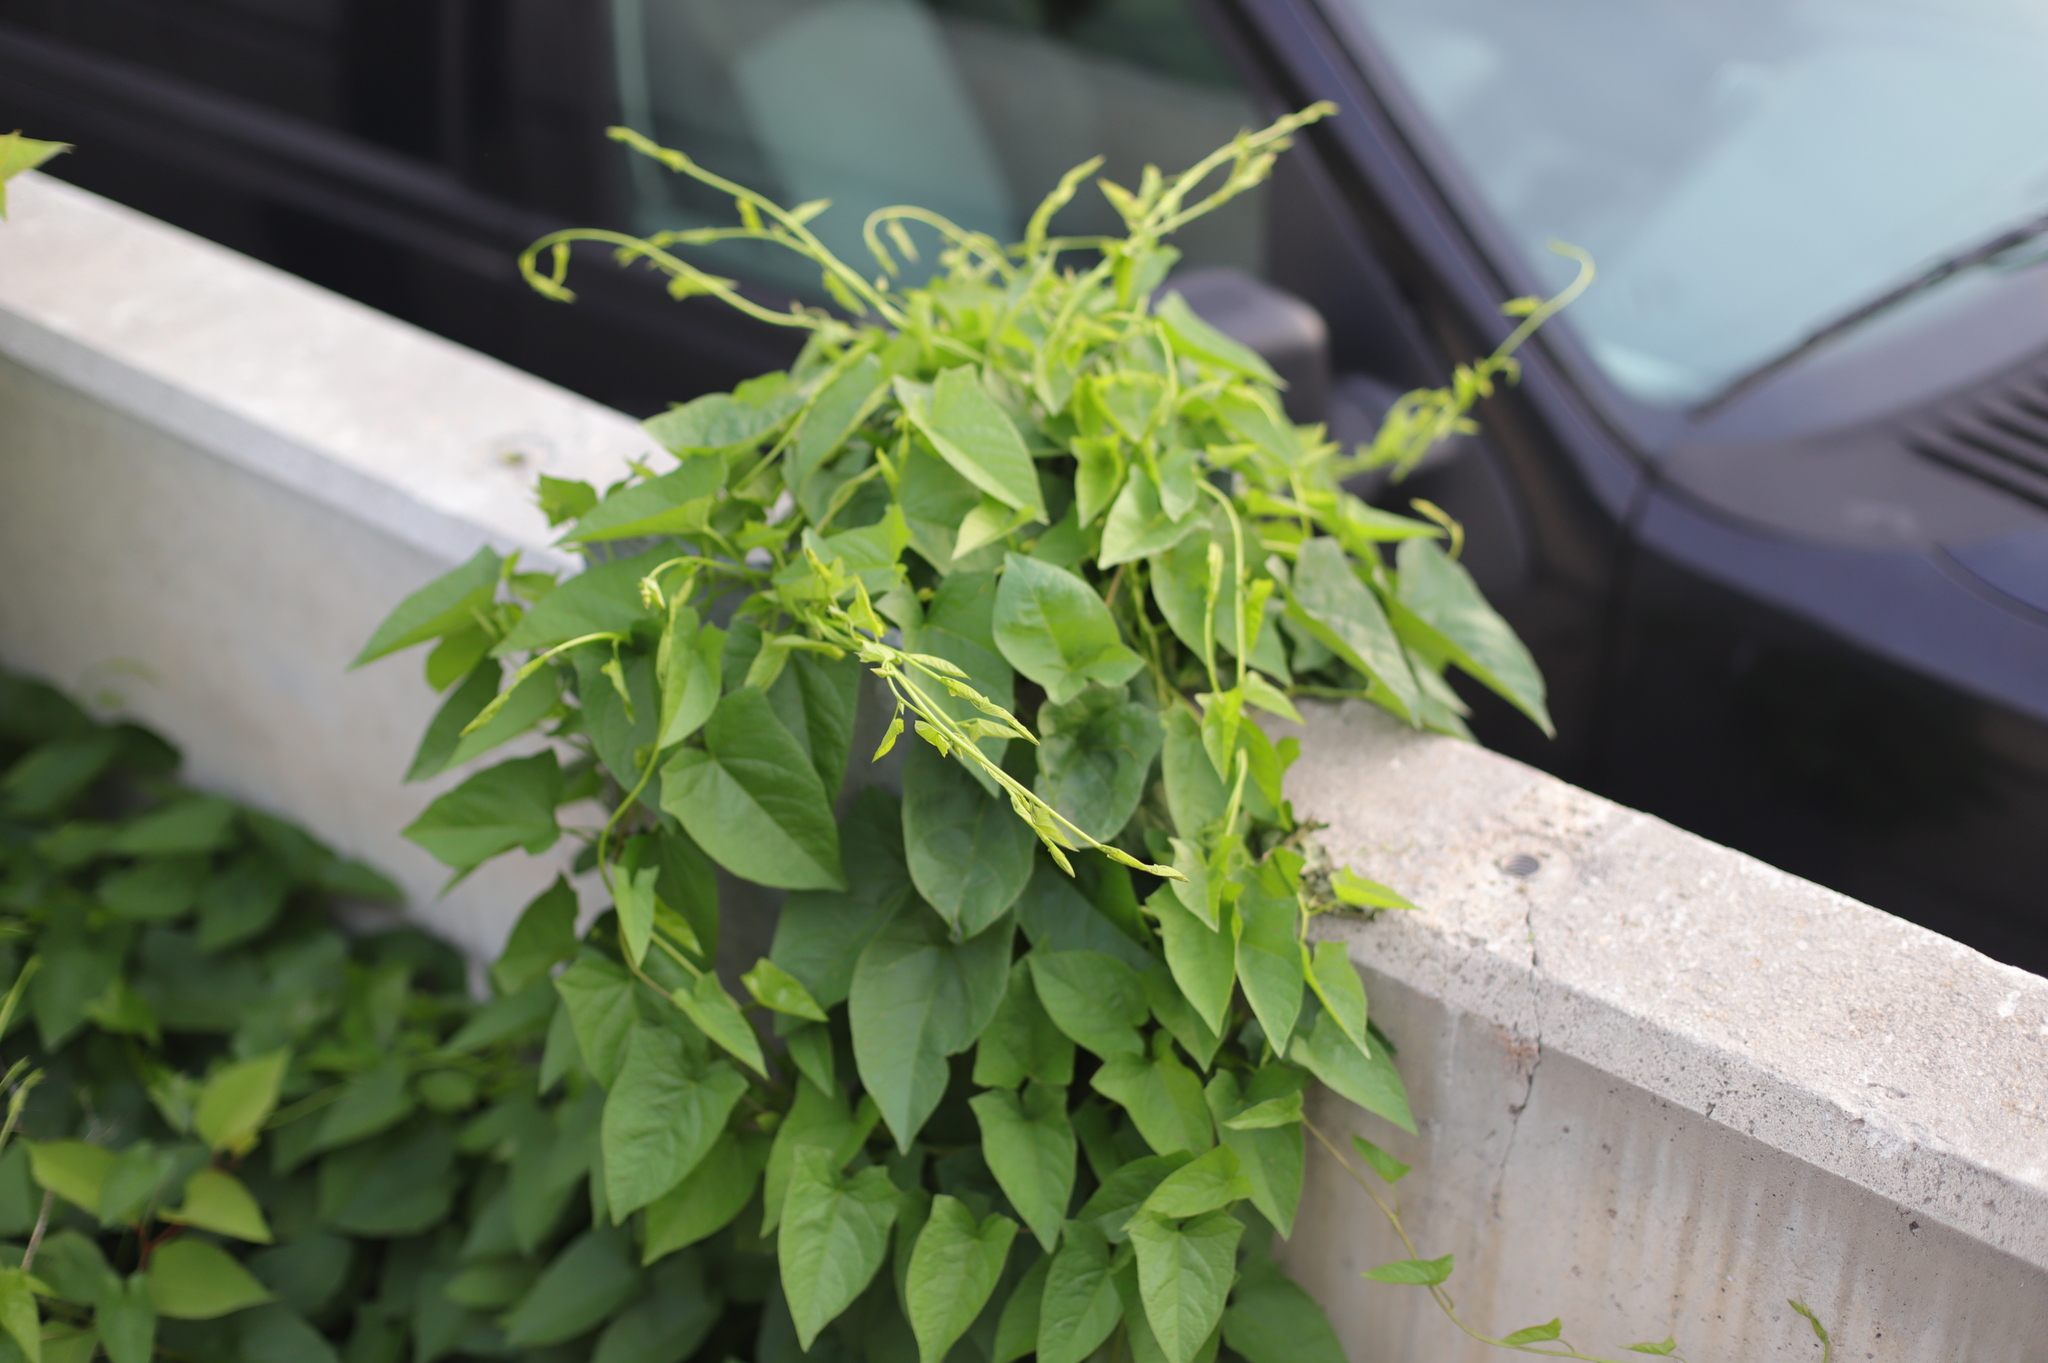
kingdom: Plantae
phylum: Tracheophyta
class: Magnoliopsida
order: Solanales
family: Convolvulaceae
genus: Calystegia
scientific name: Calystegia sepium
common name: Hedge bindweed
